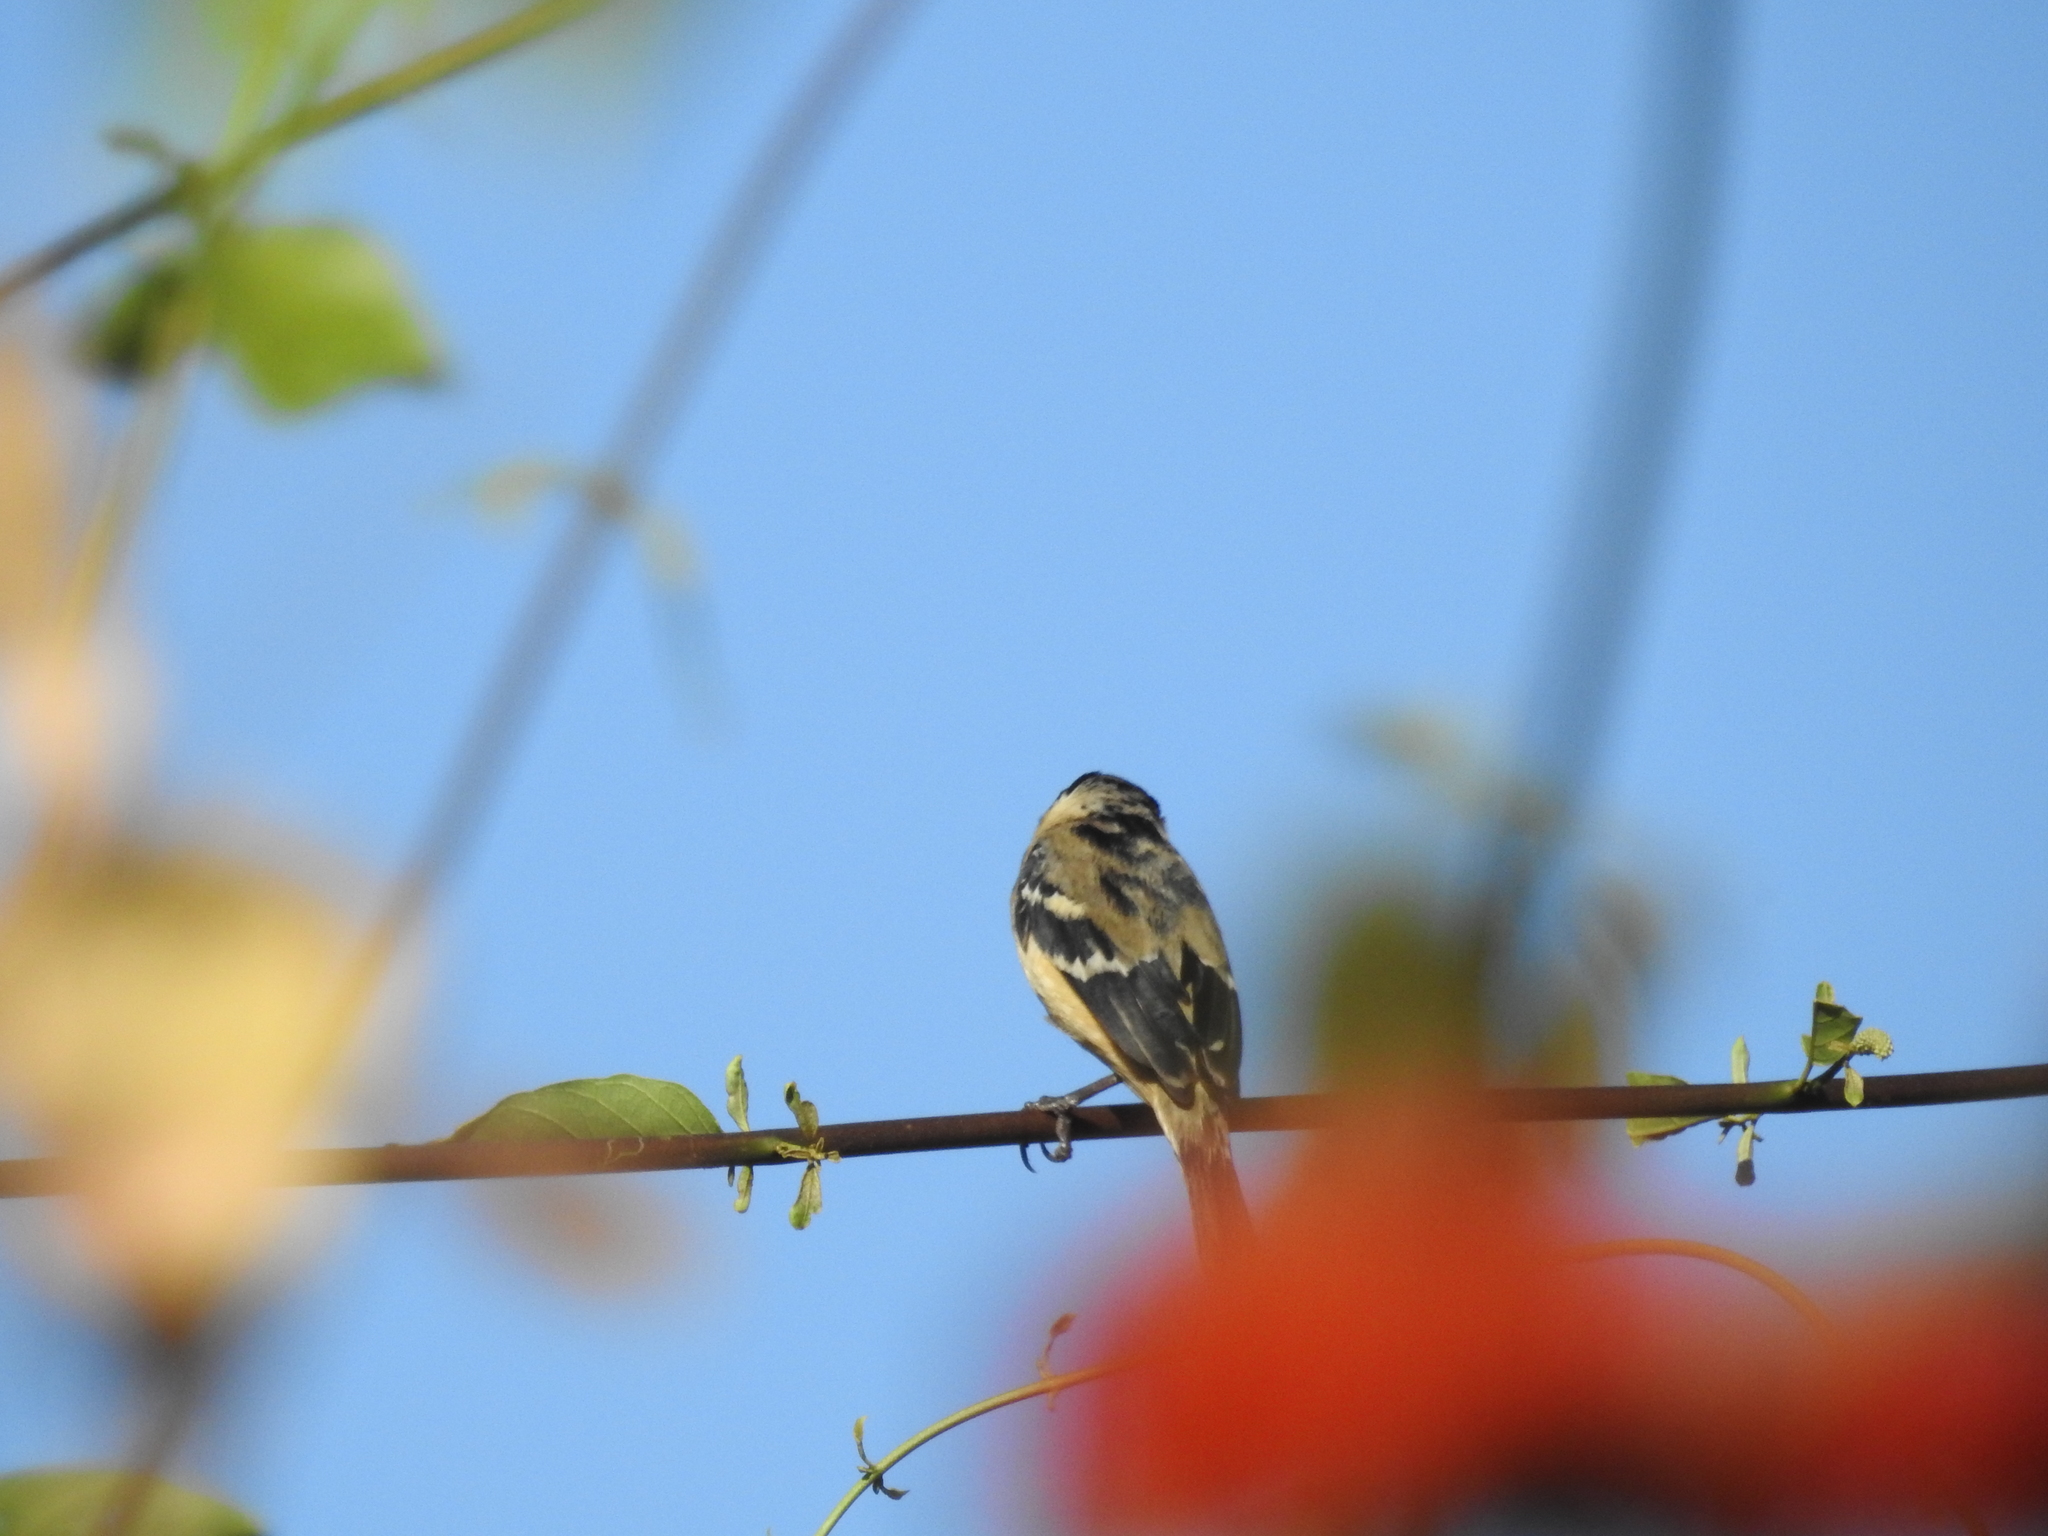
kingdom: Animalia
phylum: Chordata
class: Aves
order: Passeriformes
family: Thraupidae
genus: Sporophila
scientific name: Sporophila morelleti
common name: Morelet's seedeater
